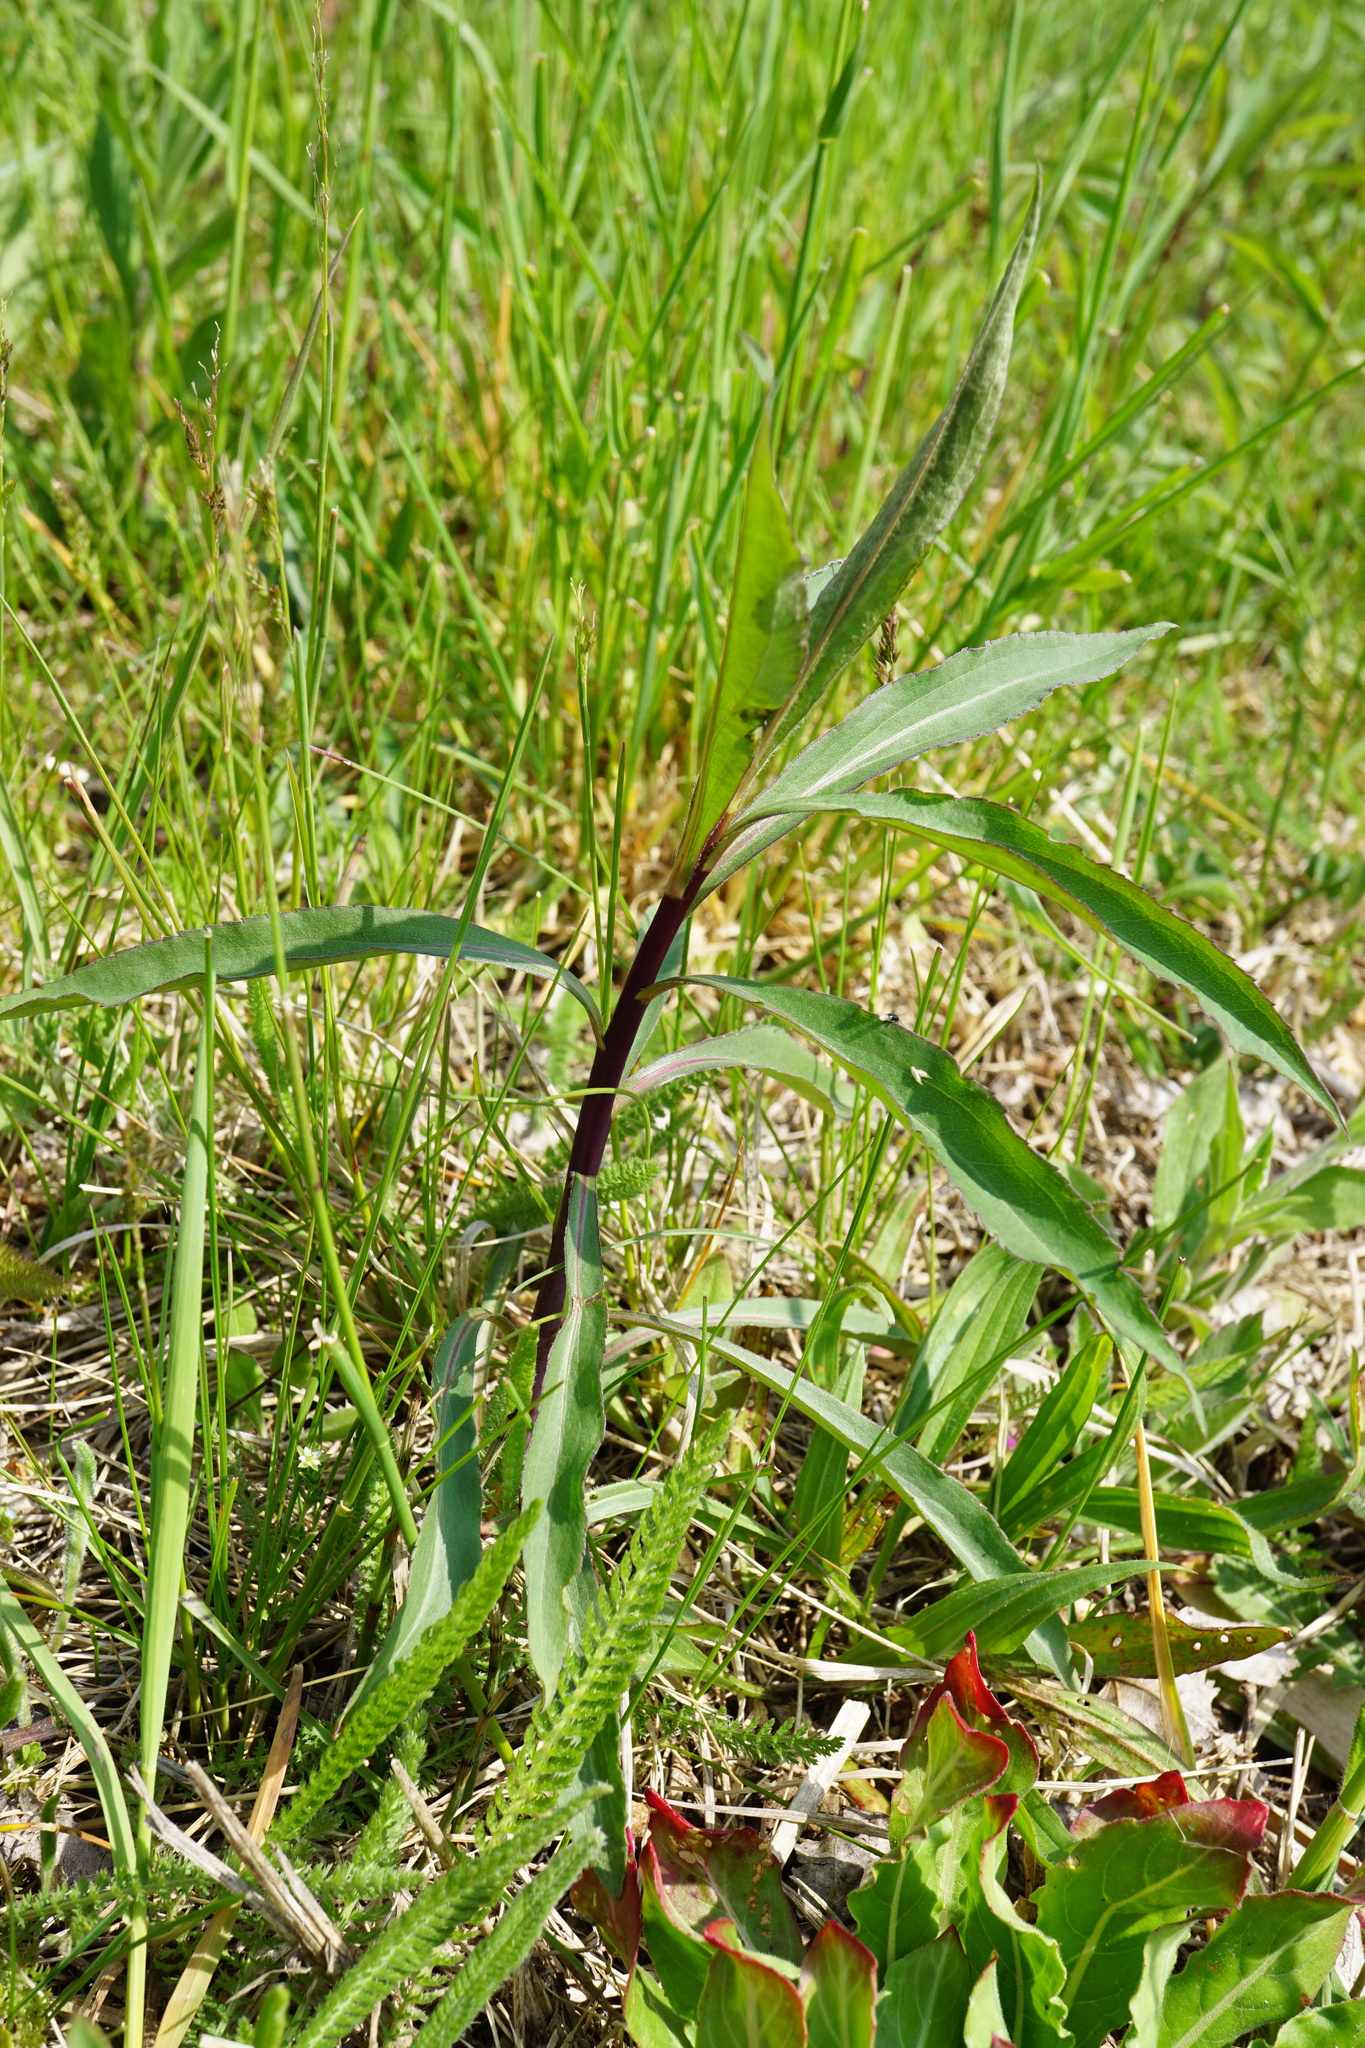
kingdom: Plantae
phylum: Tracheophyta
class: Magnoliopsida
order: Asterales
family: Asteraceae
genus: Solidago
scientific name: Solidago gigantea
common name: Giant goldenrod
